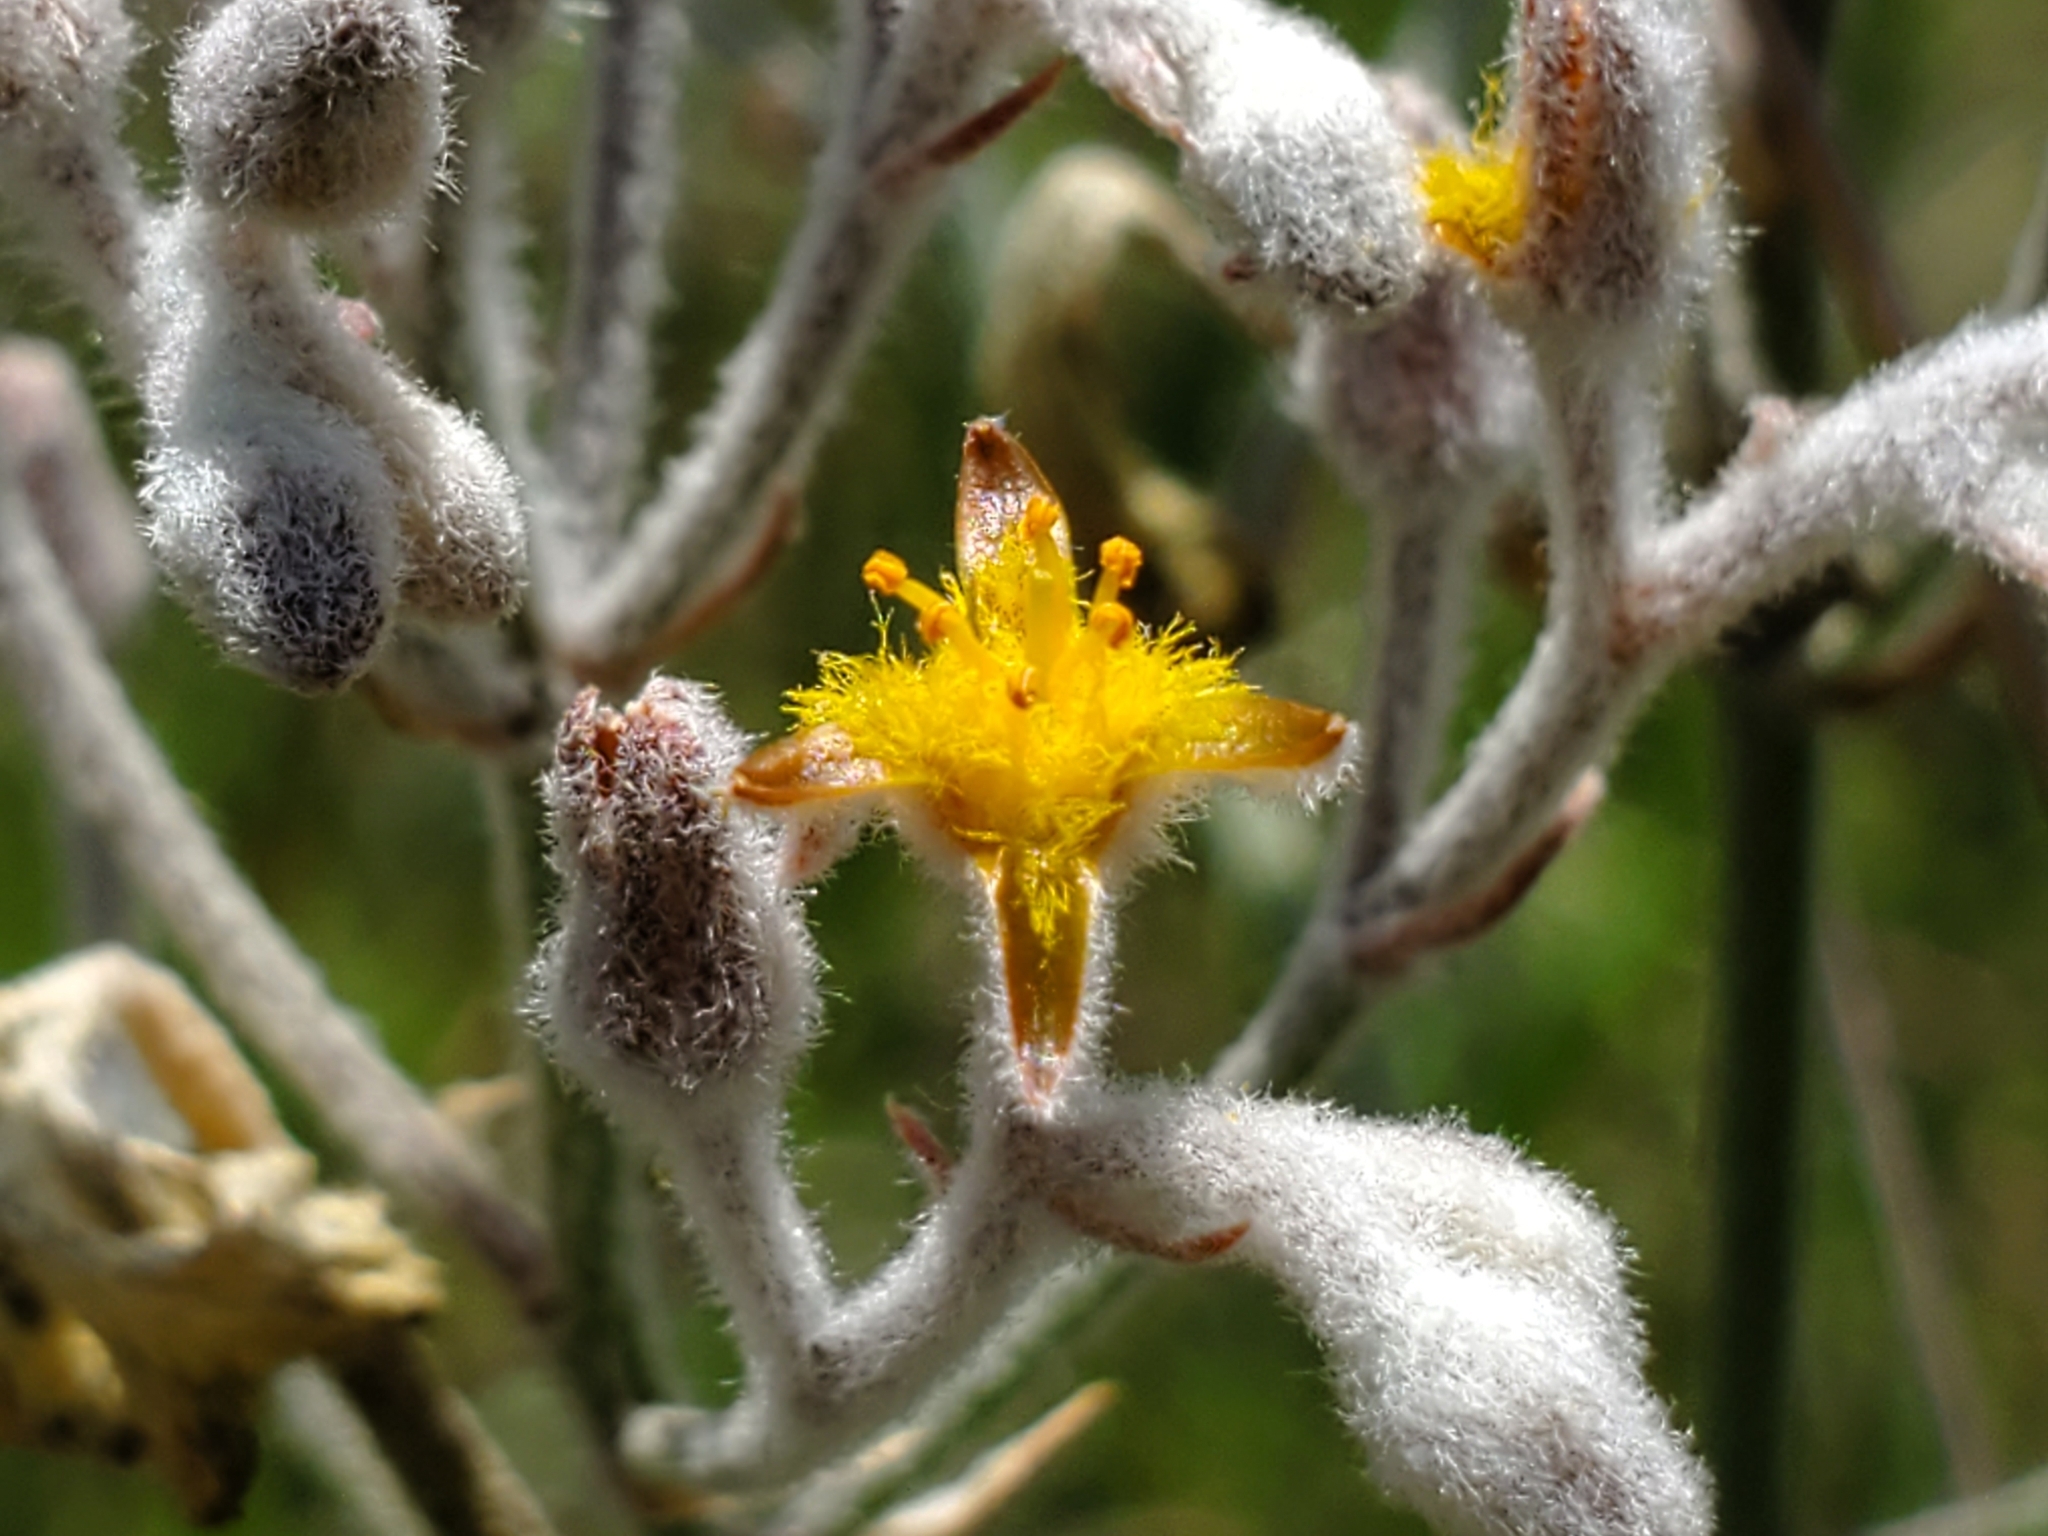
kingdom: Plantae
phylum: Tracheophyta
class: Liliopsida
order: Dioscoreales
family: Nartheciaceae
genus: Lophiola
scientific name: Lophiola aurea
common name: Golden-crest
